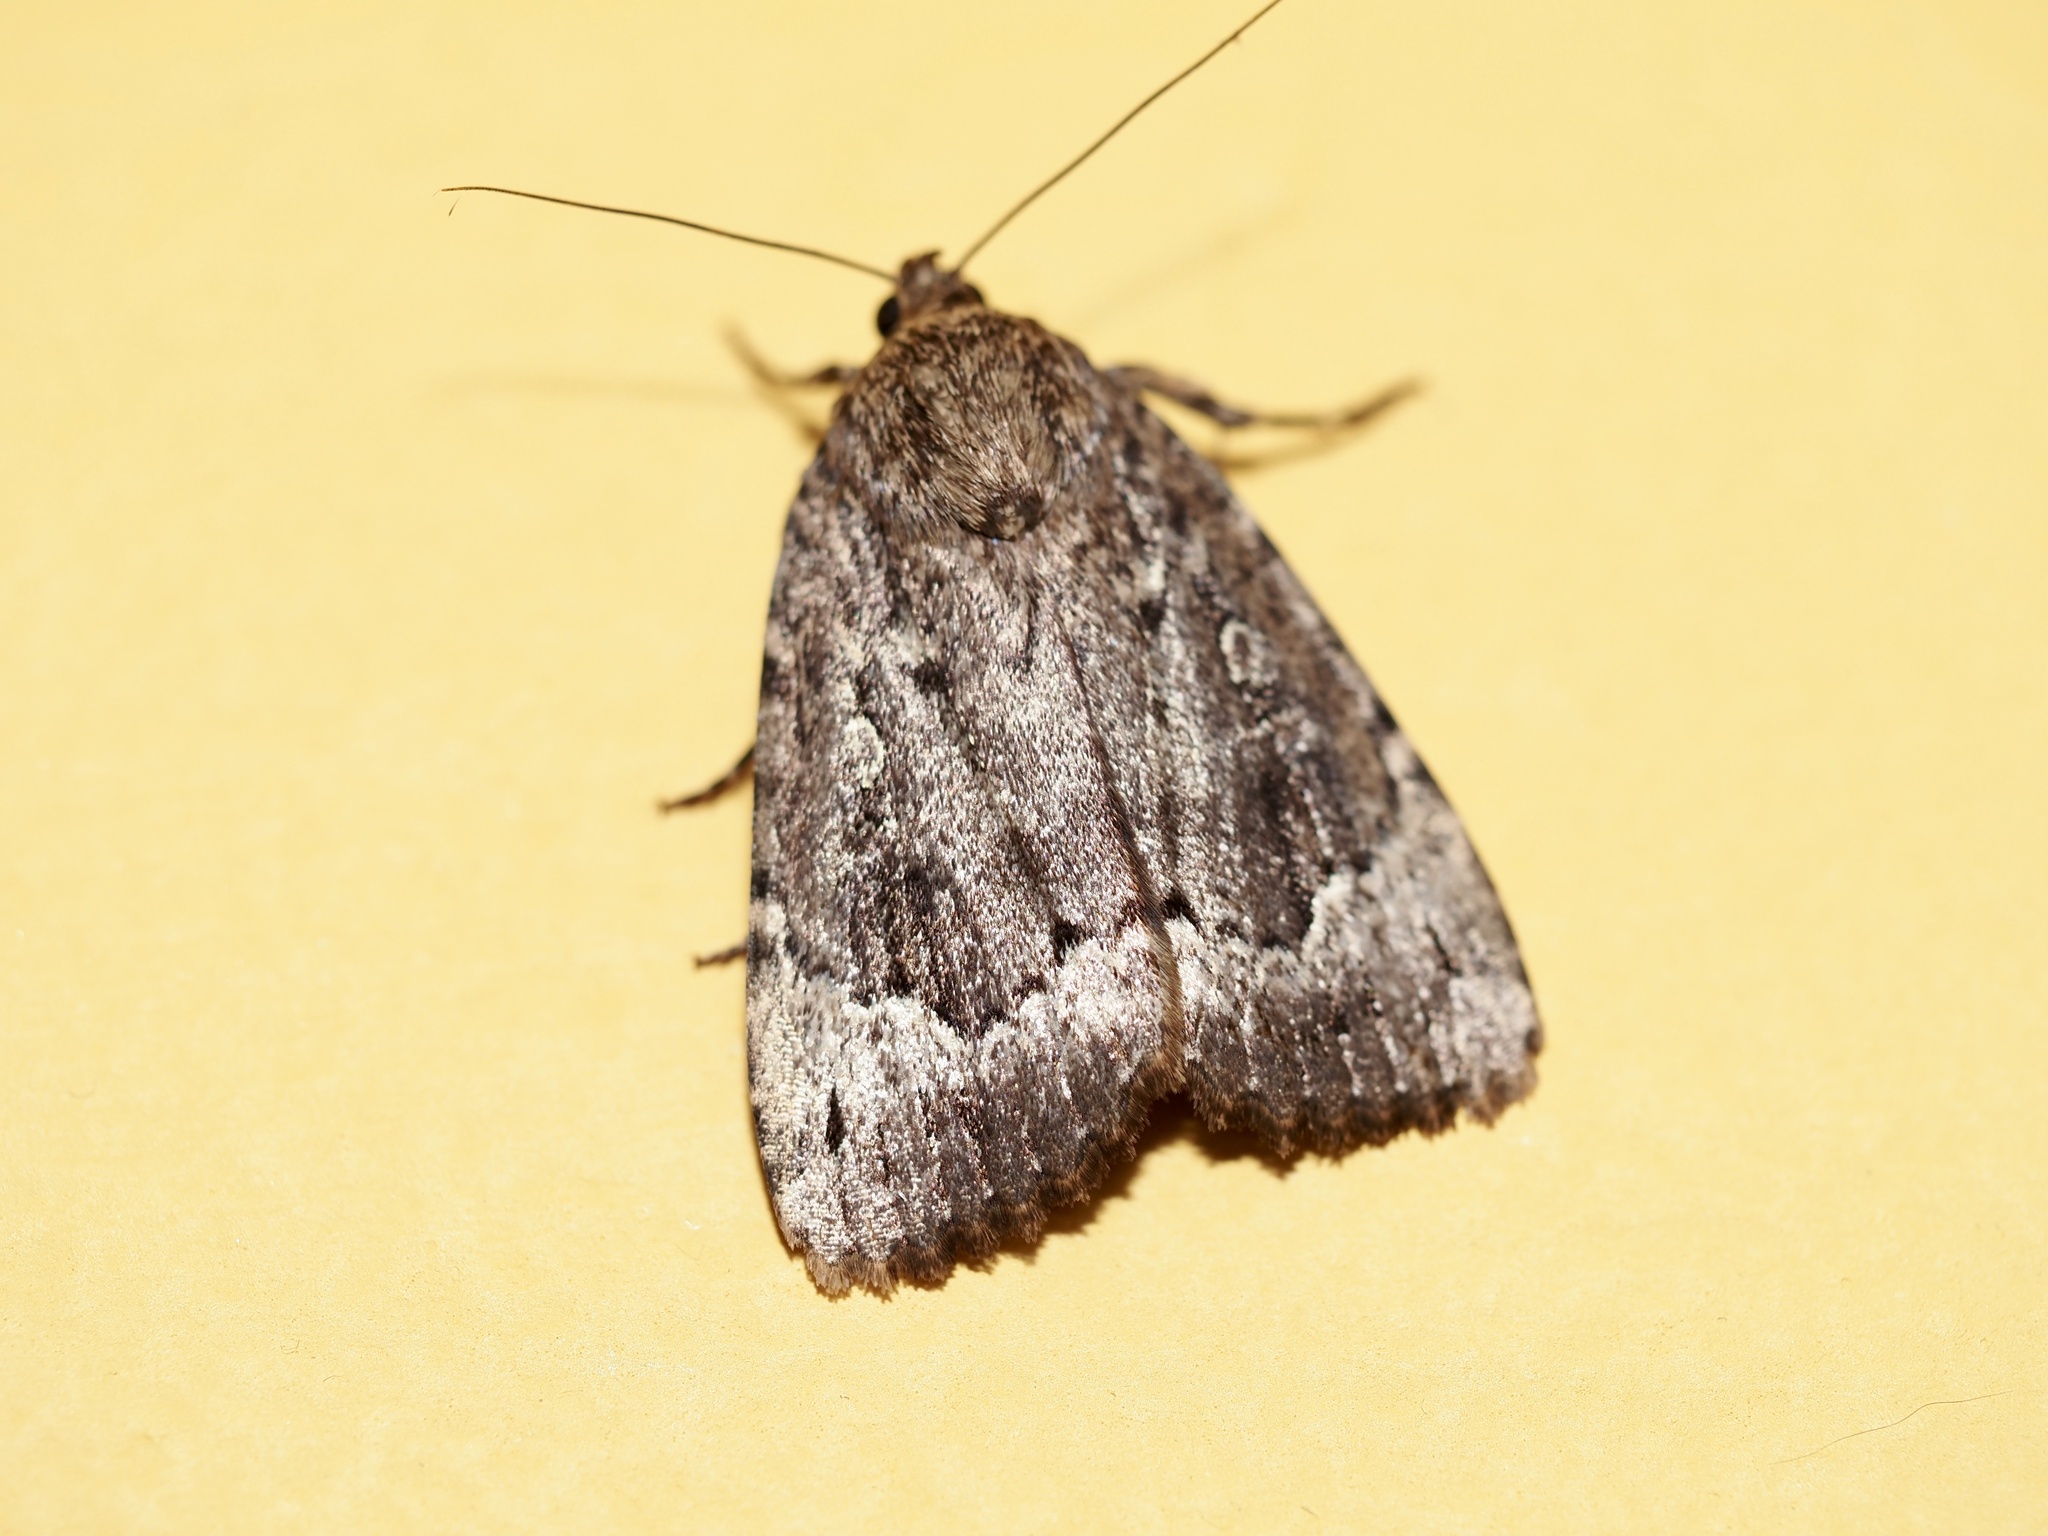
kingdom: Animalia
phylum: Arthropoda
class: Insecta
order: Lepidoptera
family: Noctuidae
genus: Amphipyra
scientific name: Amphipyra pyramidoides
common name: American copper underwing
